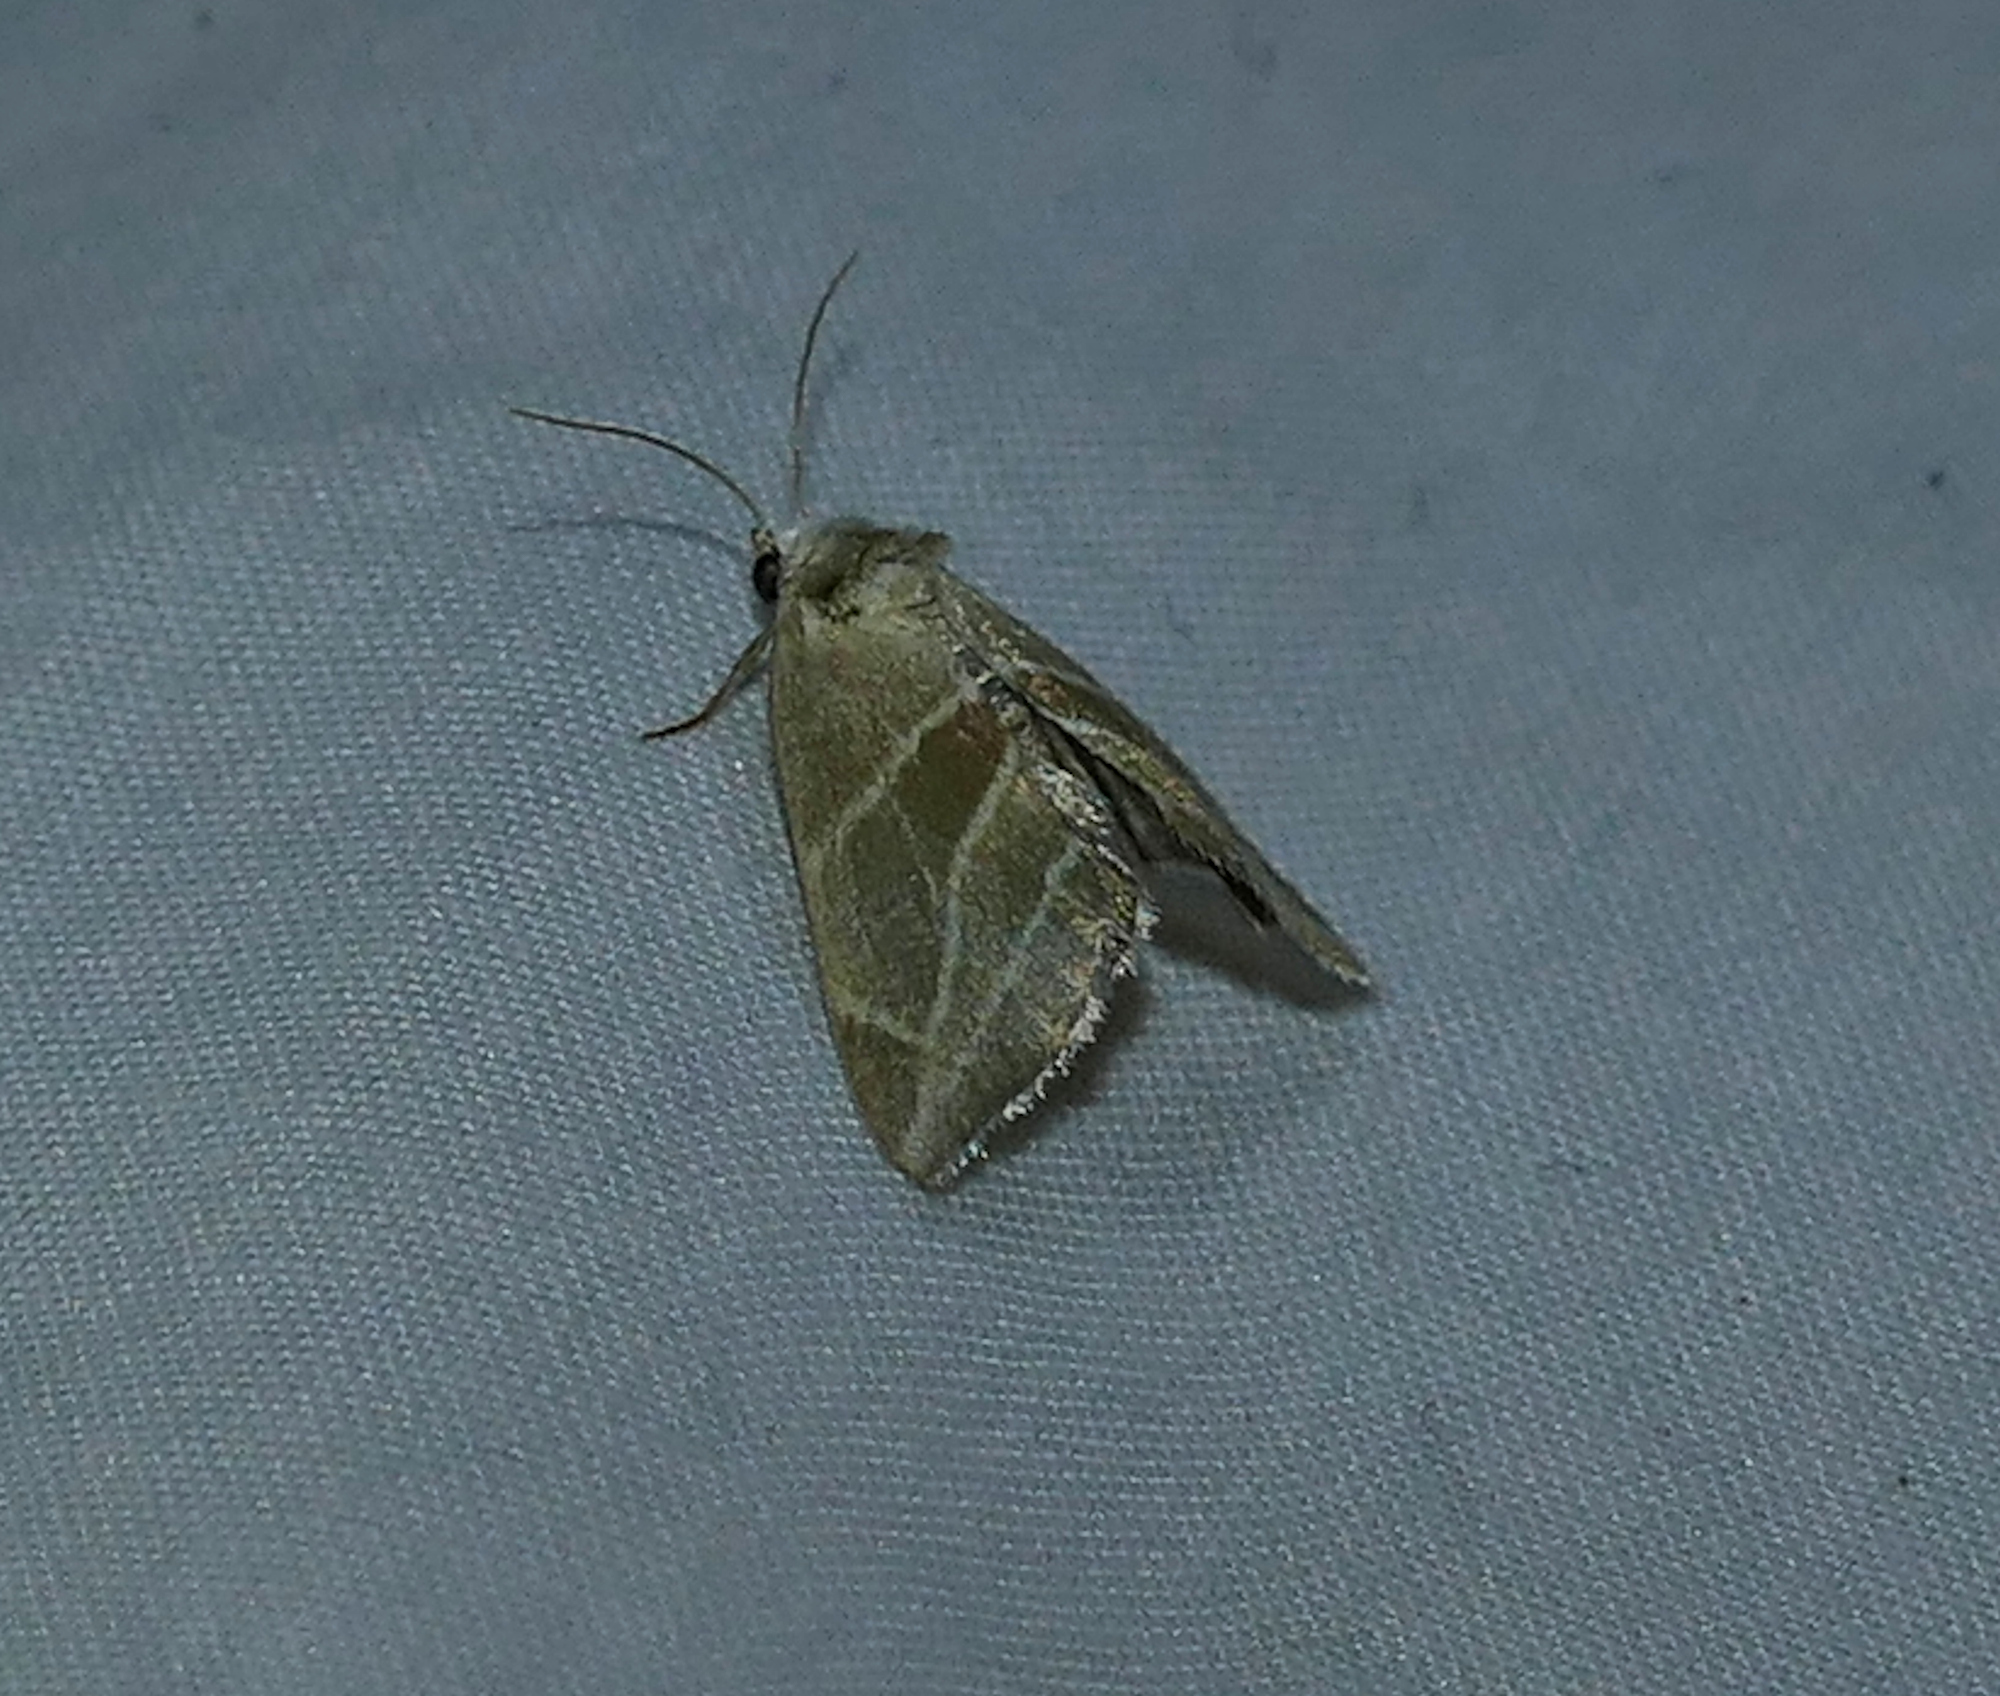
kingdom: Animalia
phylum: Arthropoda
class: Insecta
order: Lepidoptera
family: Noctuidae
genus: Plagiomimicus
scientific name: Plagiomimicus mimica
